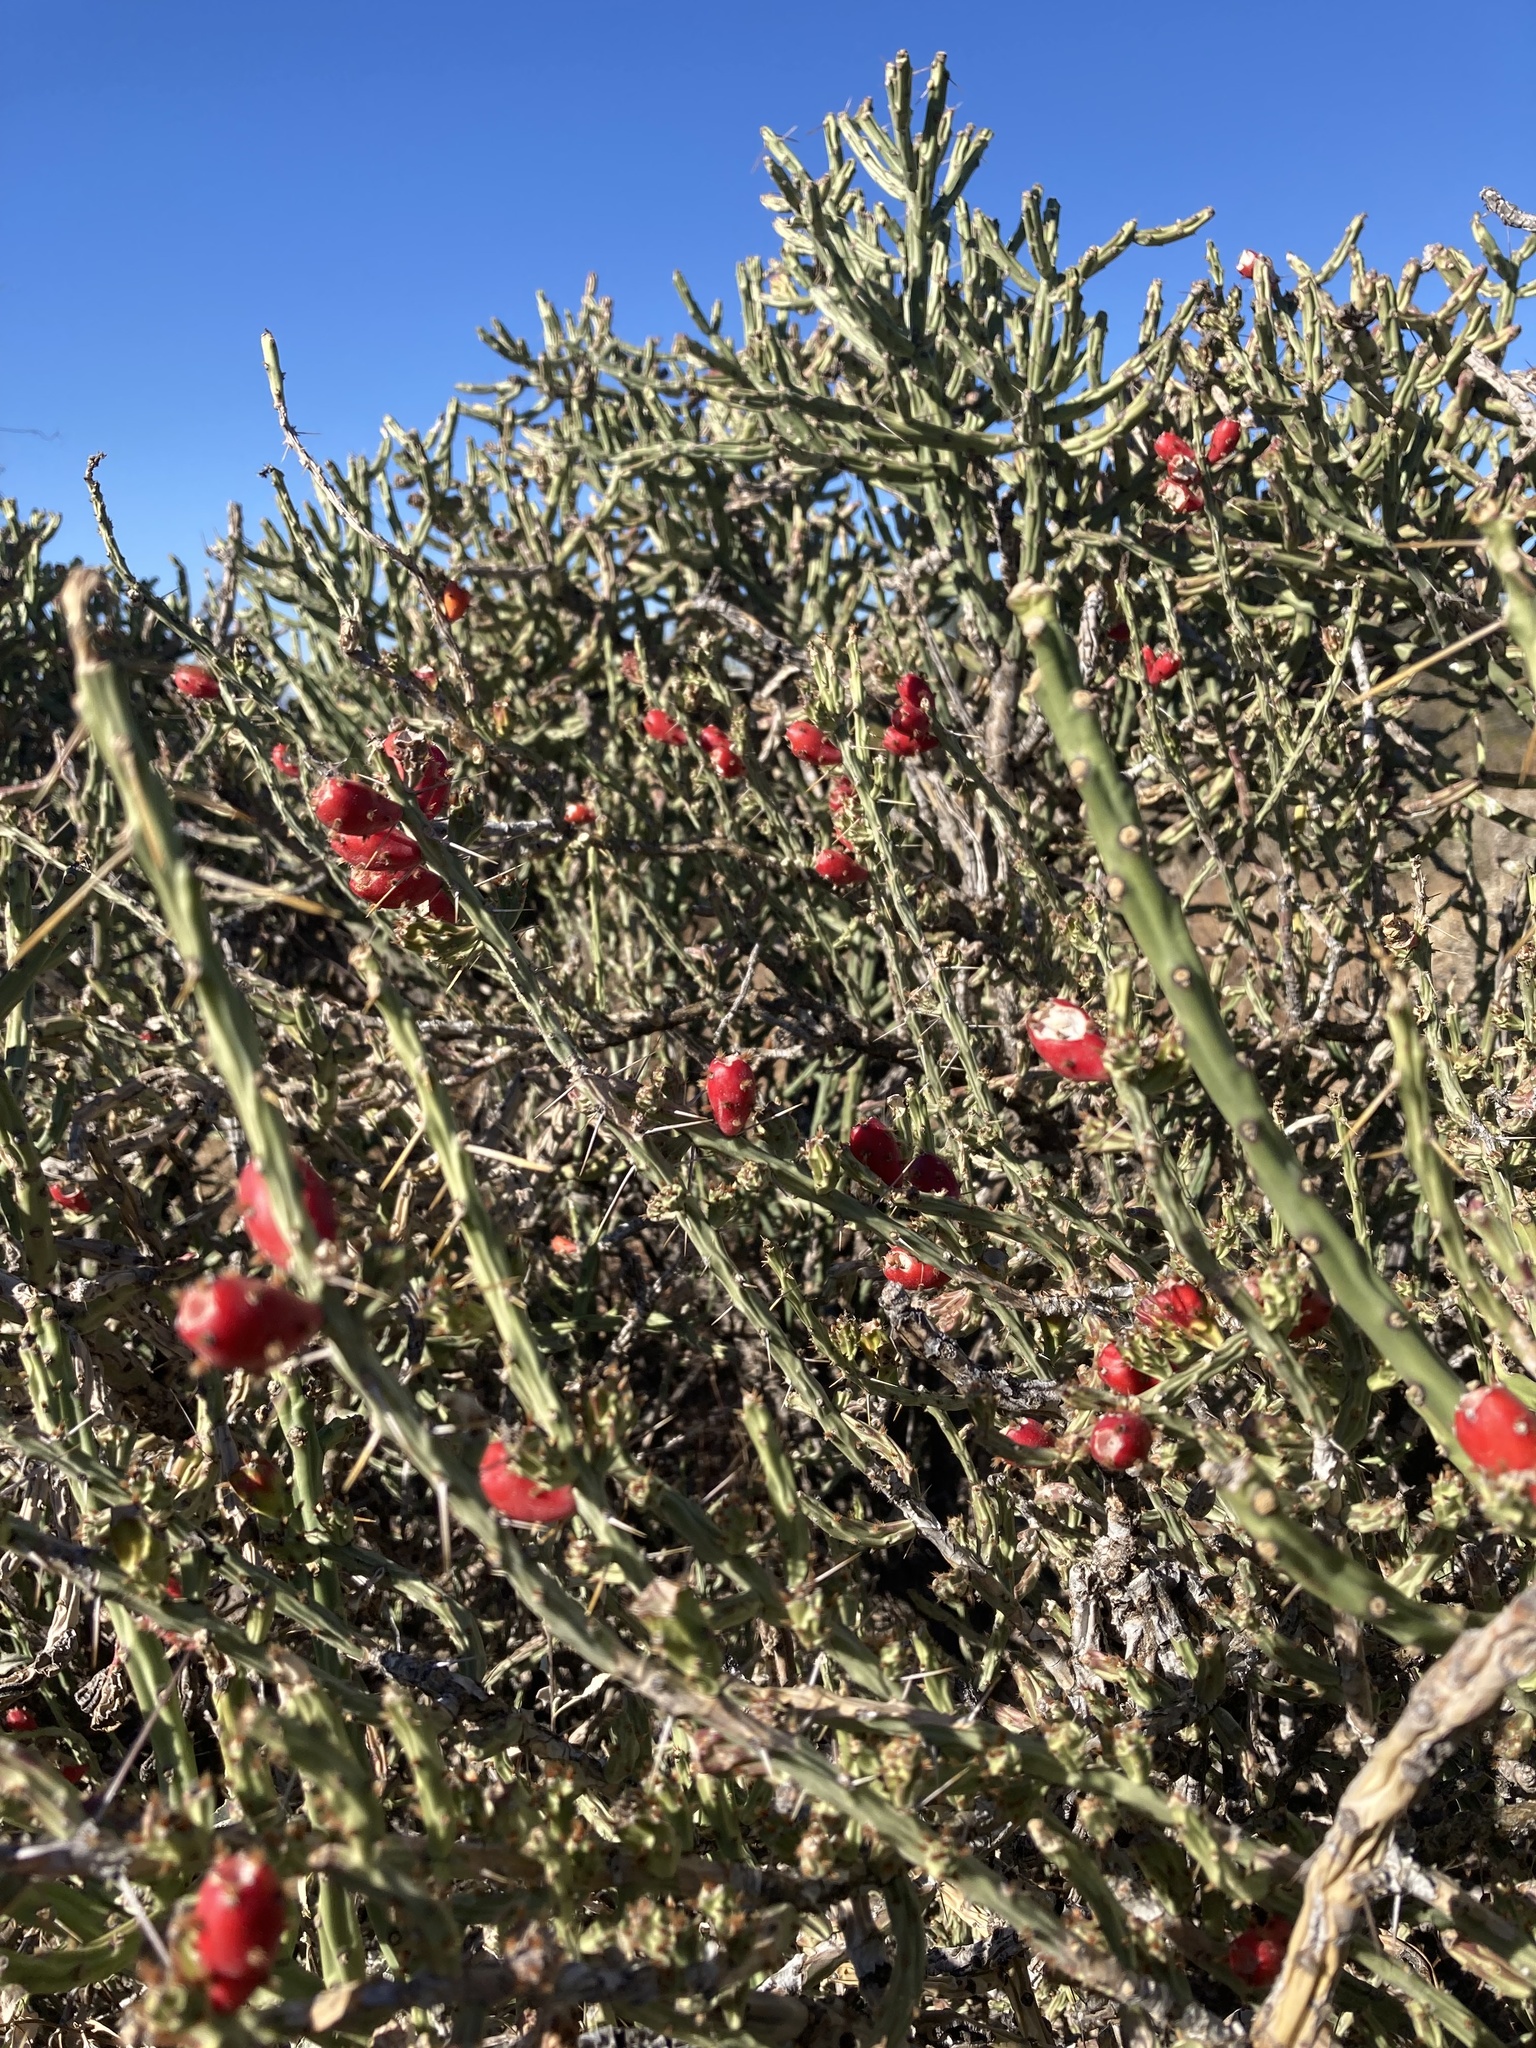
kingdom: Plantae
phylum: Tracheophyta
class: Magnoliopsida
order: Caryophyllales
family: Cactaceae
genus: Cylindropuntia
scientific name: Cylindropuntia leptocaulis
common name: Christmas cactus
